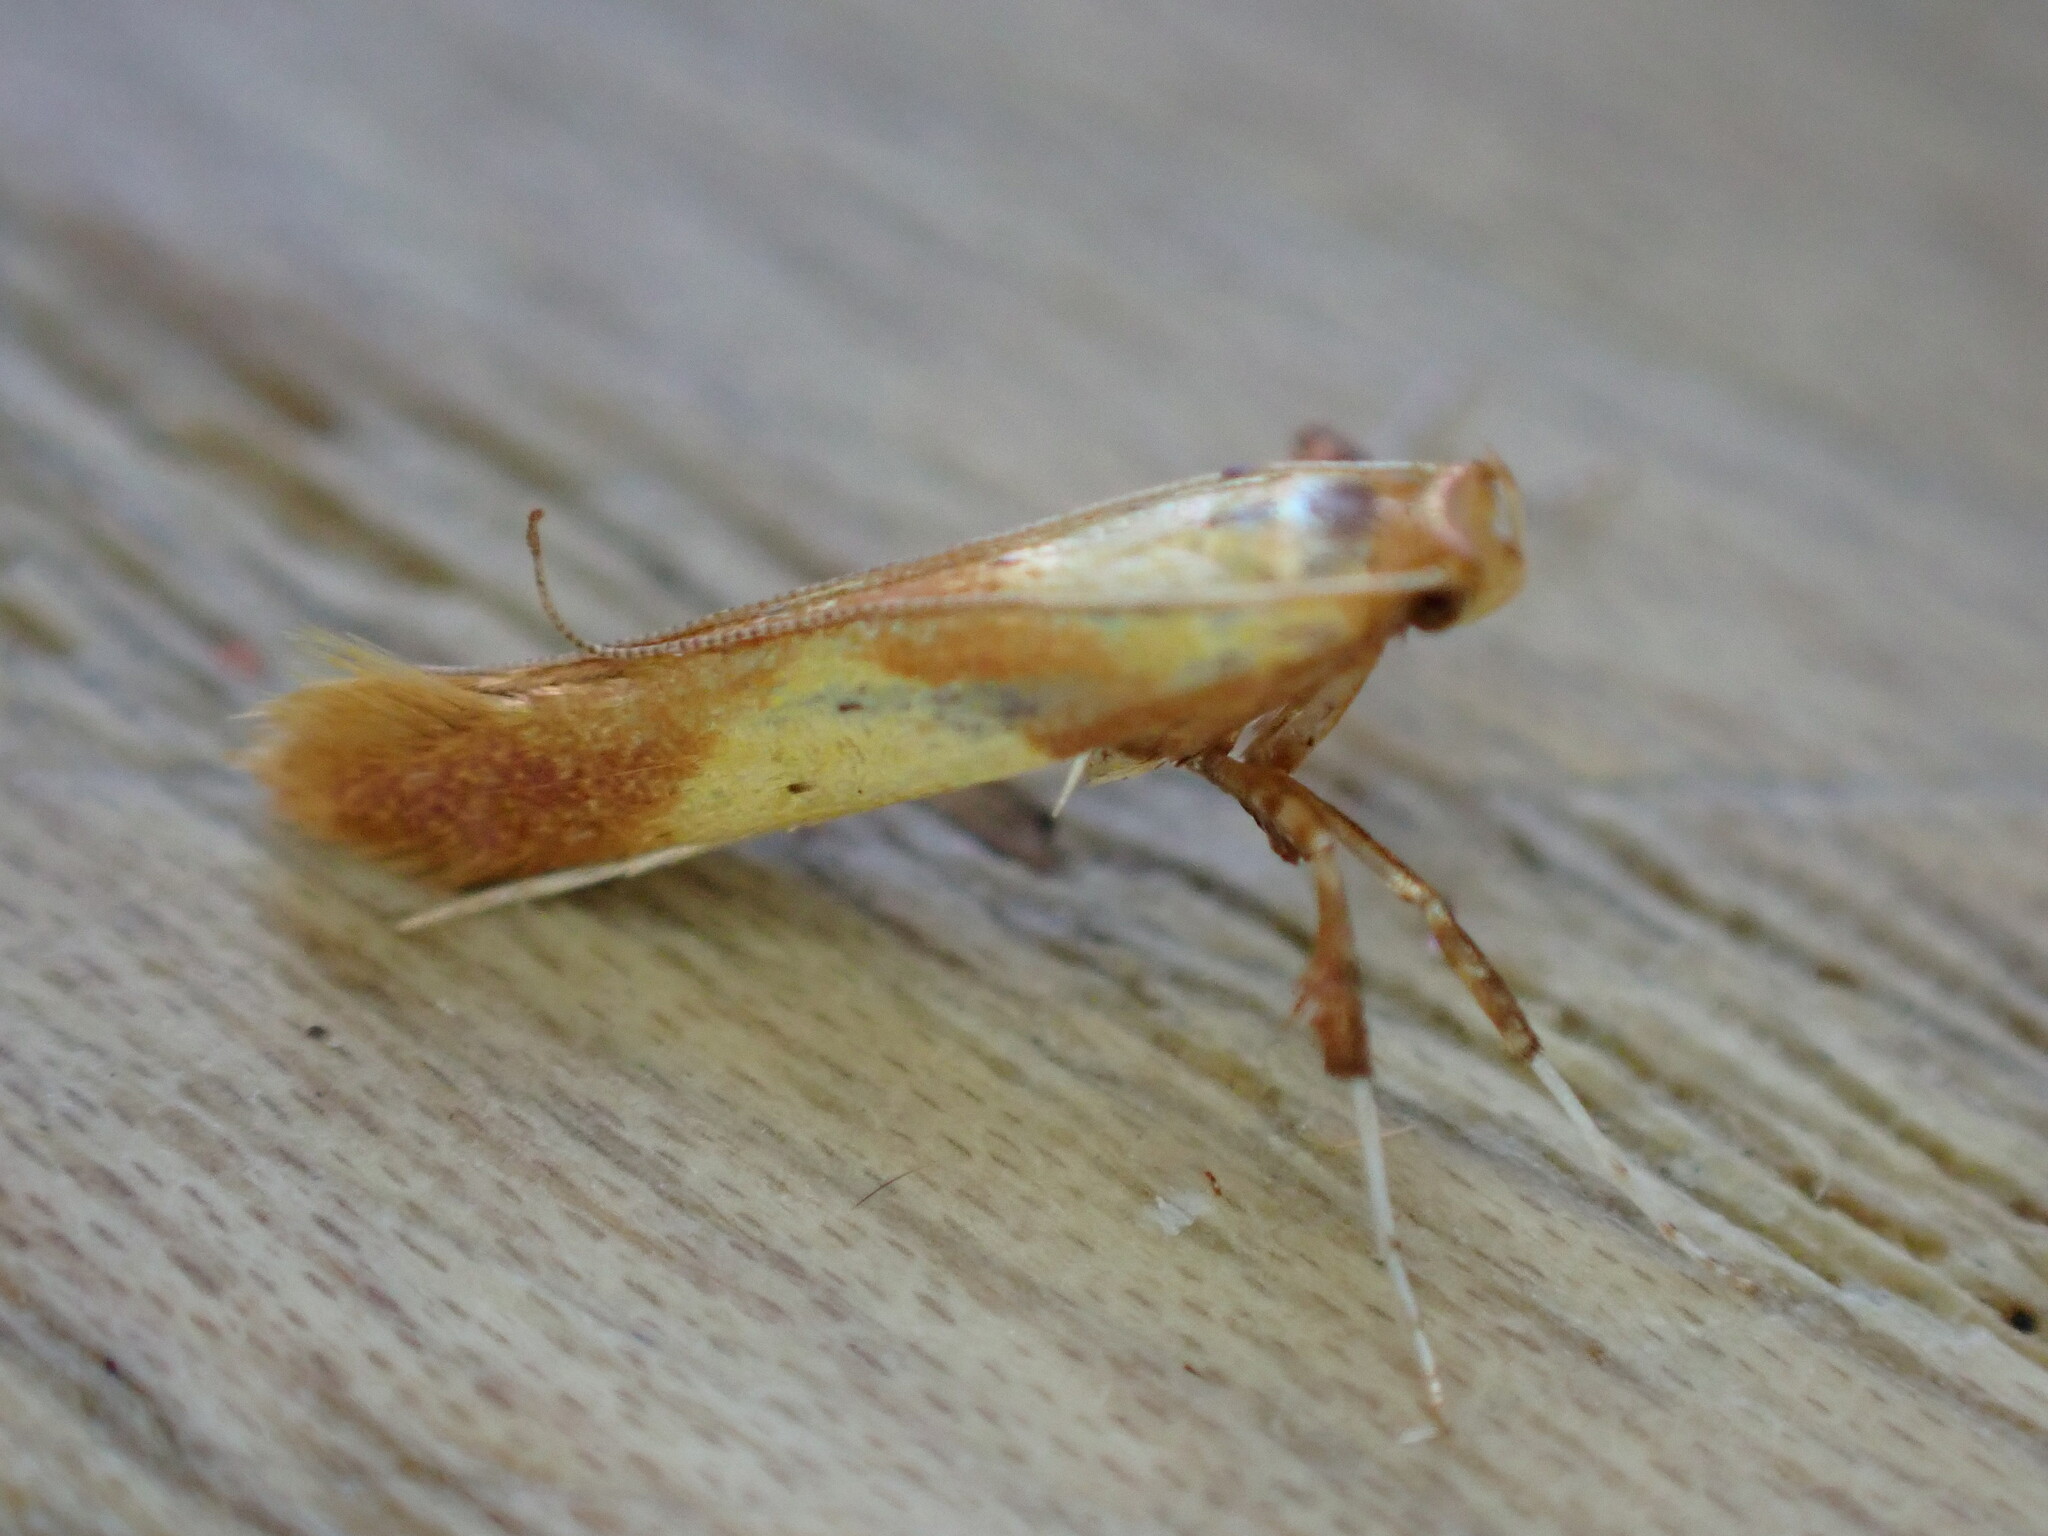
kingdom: Animalia
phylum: Arthropoda
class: Insecta
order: Lepidoptera
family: Gracillariidae
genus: Caloptilia
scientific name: Caloptilia robustella
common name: New oak slender
